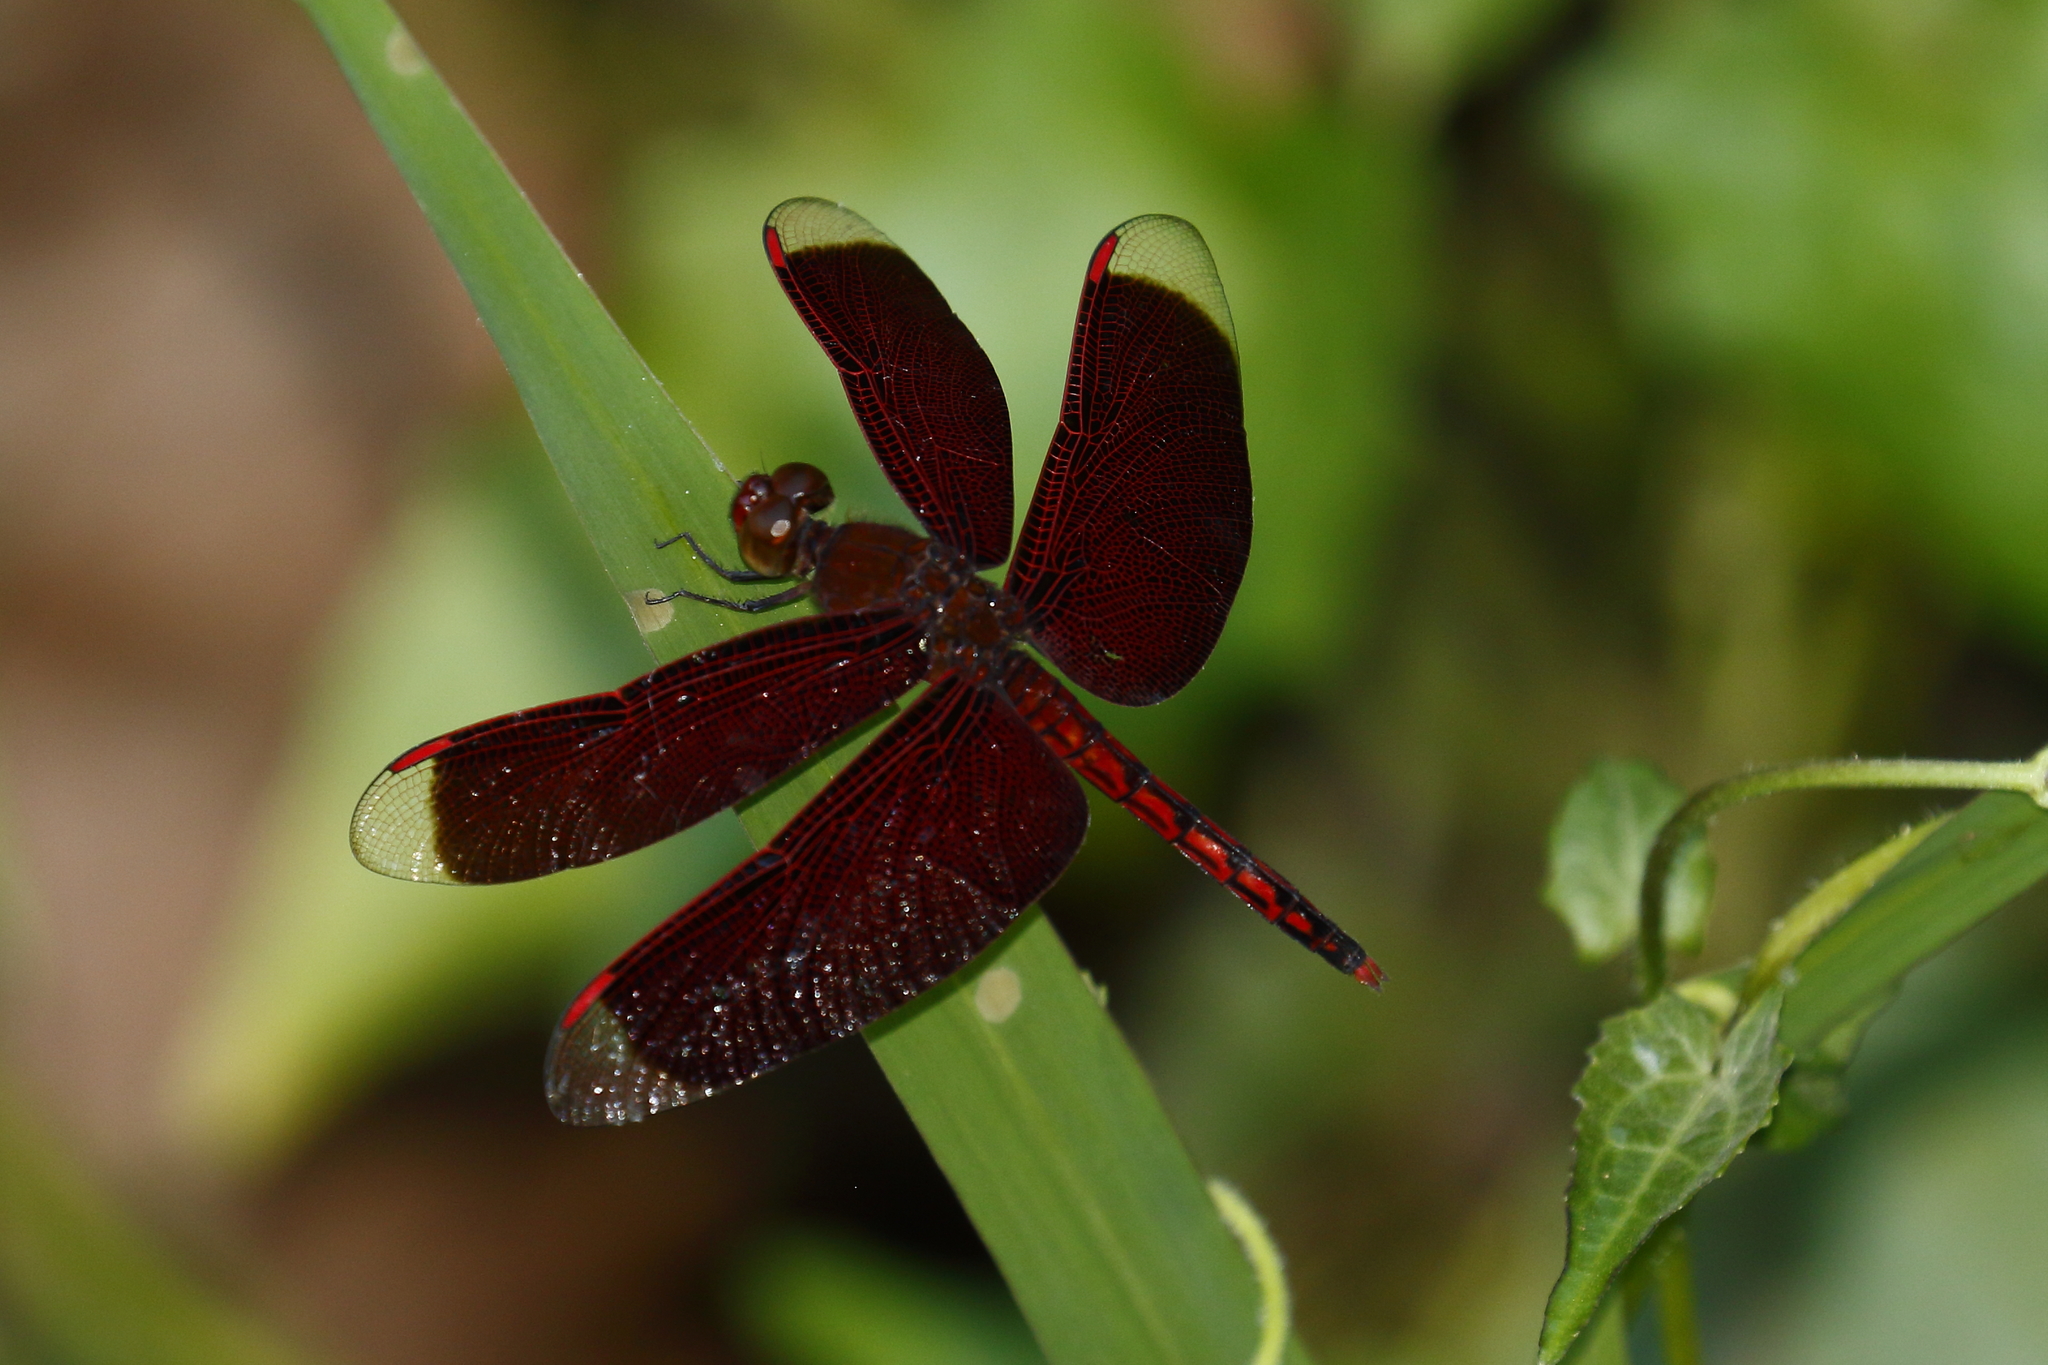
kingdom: Animalia
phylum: Arthropoda
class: Insecta
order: Odonata
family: Libellulidae
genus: Neurothemis
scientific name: Neurothemis taiwanensis
